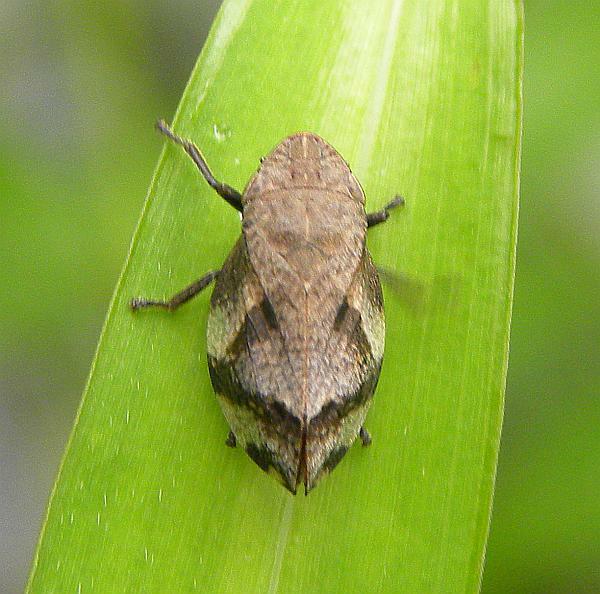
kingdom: Animalia
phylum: Arthropoda
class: Insecta
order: Hemiptera
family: Aphrophoridae
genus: Lepyronia
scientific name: Lepyronia quadrangularis
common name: Diamond-backed spittlebug
